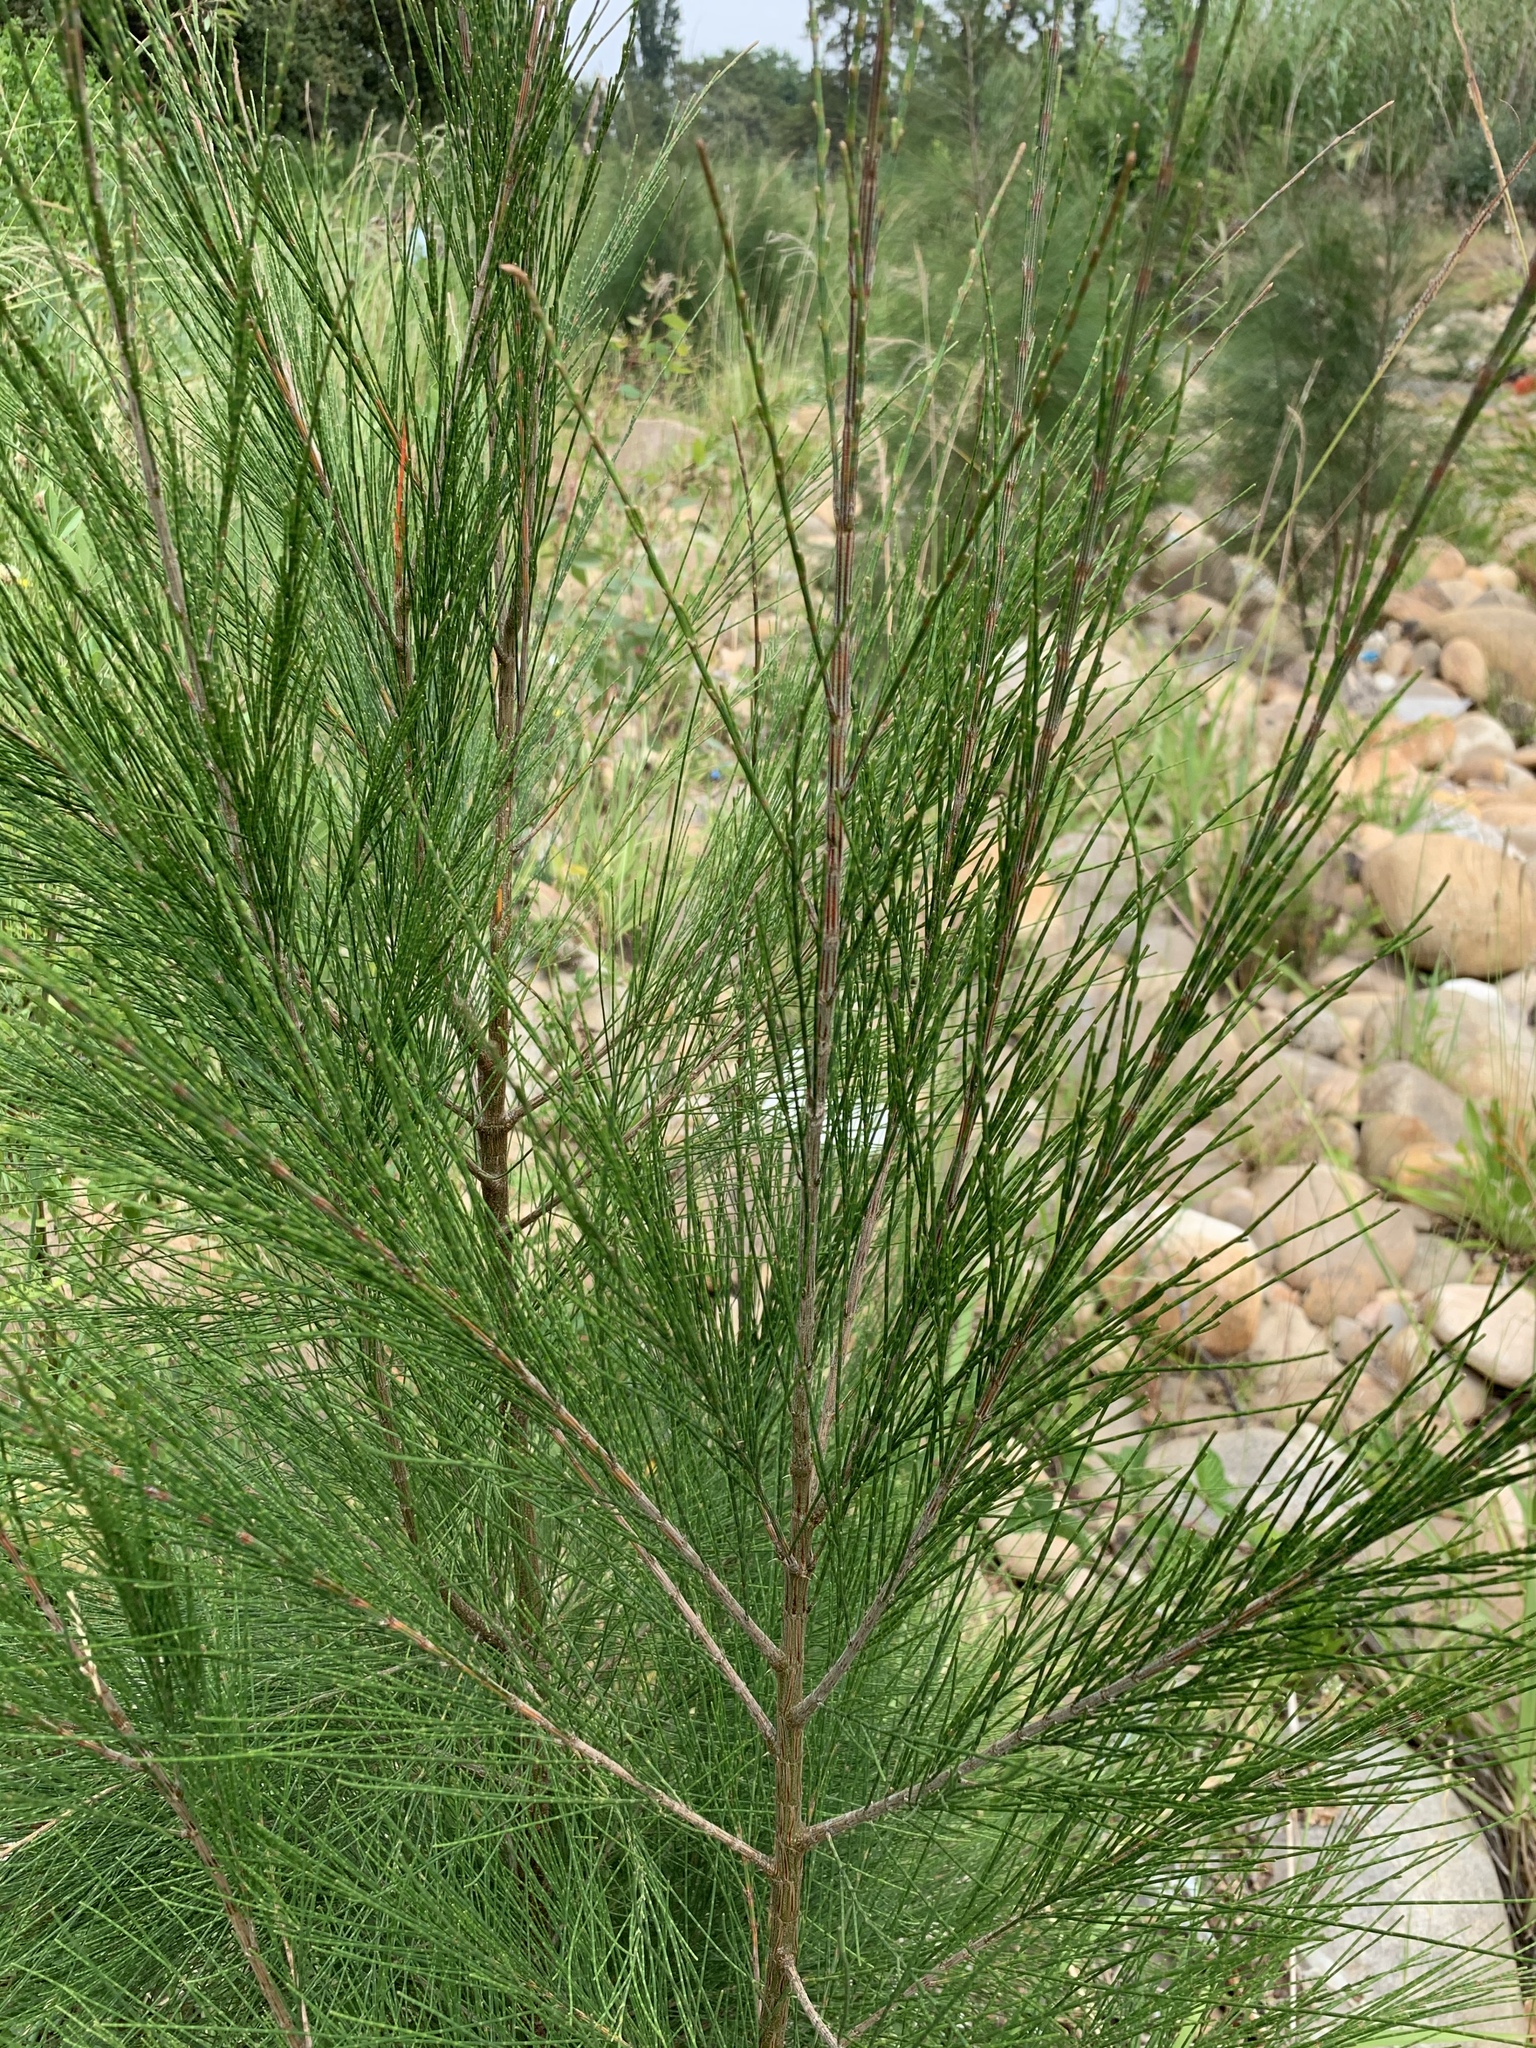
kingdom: Plantae
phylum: Tracheophyta
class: Magnoliopsida
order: Fagales
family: Casuarinaceae
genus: Casuarina
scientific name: Casuarina cunninghamiana
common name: River sheoak
